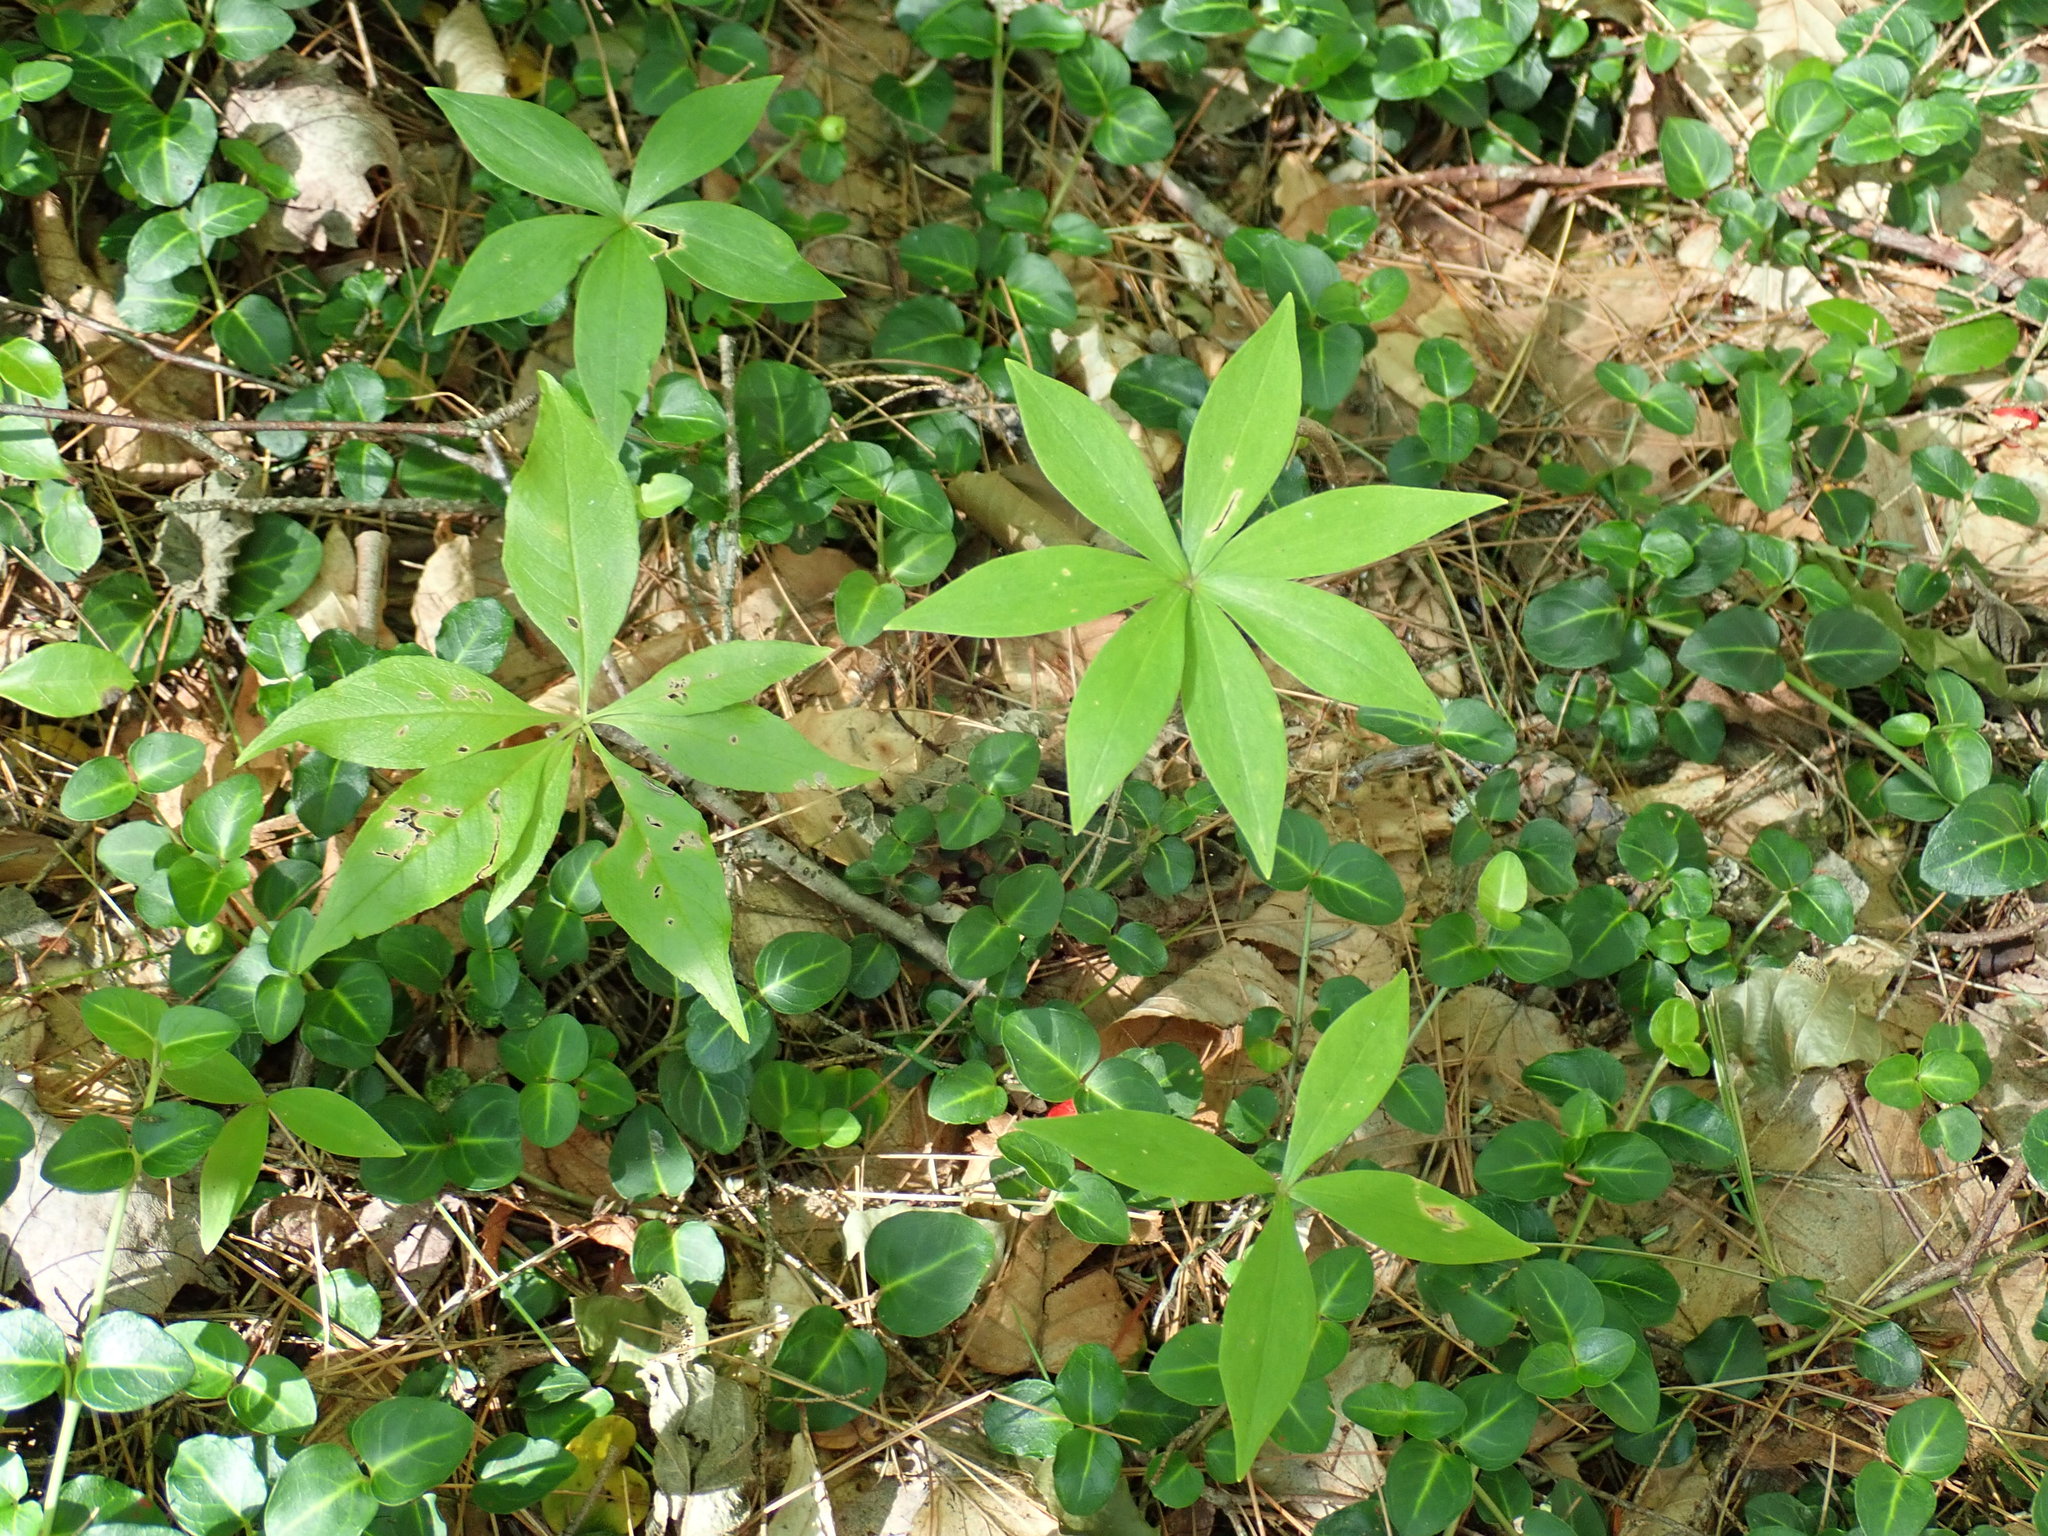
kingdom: Plantae
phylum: Tracheophyta
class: Magnoliopsida
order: Ericales
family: Primulaceae
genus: Lysimachia
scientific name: Lysimachia borealis
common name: American starflower
